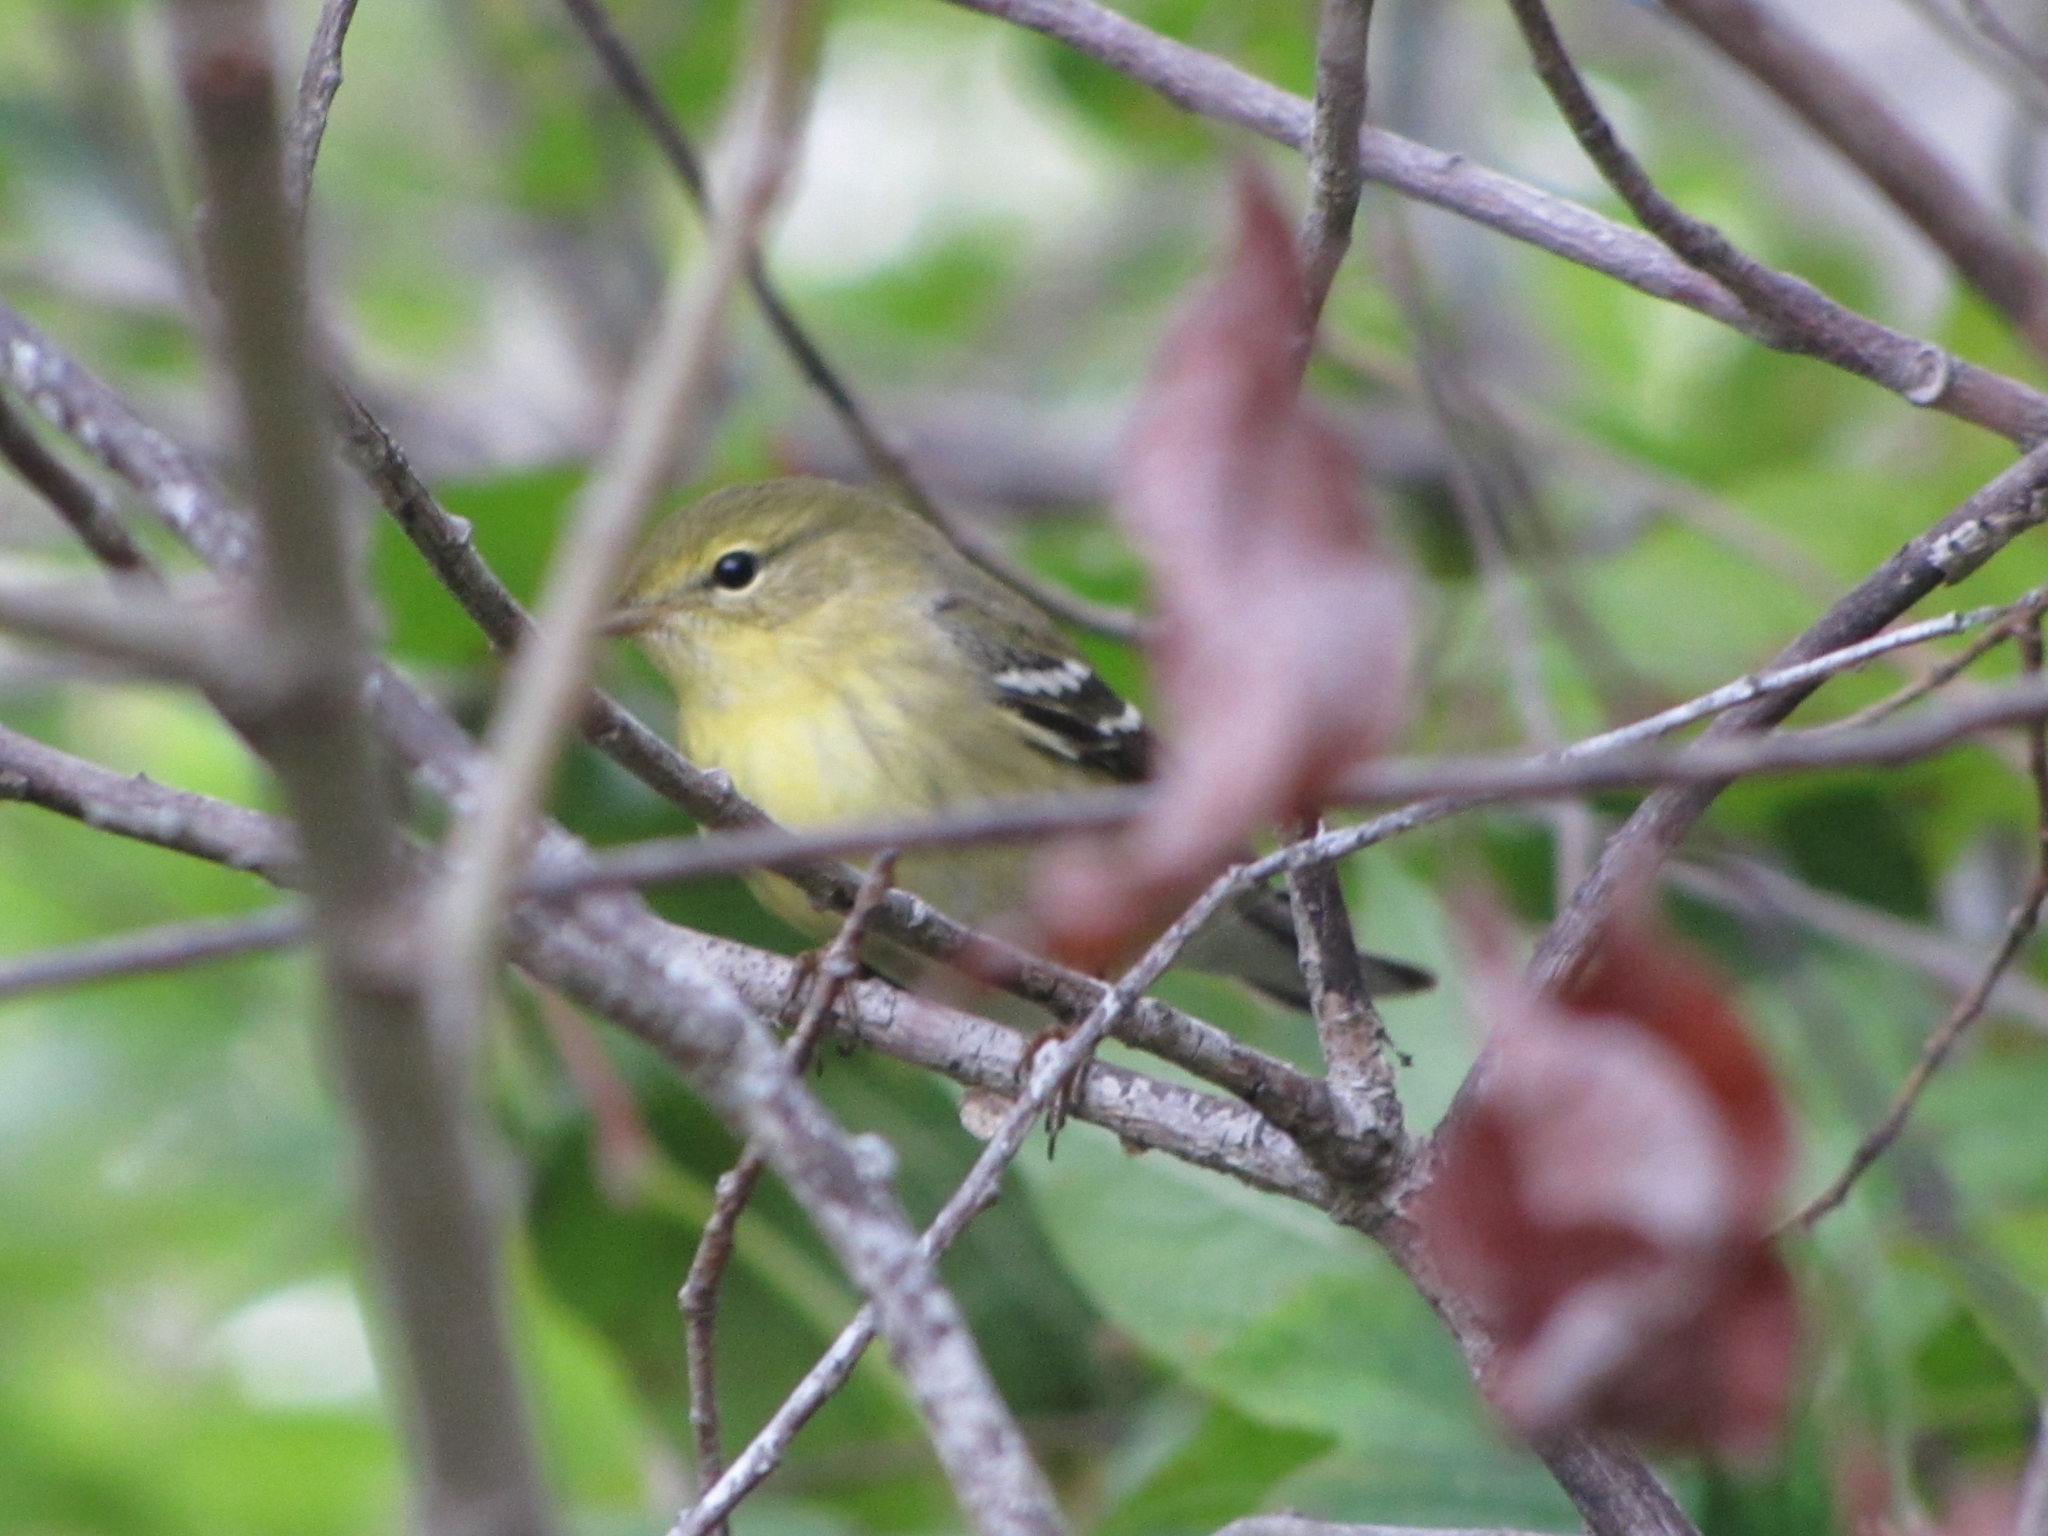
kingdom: Animalia
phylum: Chordata
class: Aves
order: Passeriformes
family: Parulidae
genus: Setophaga
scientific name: Setophaga striata
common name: Blackpoll warbler
